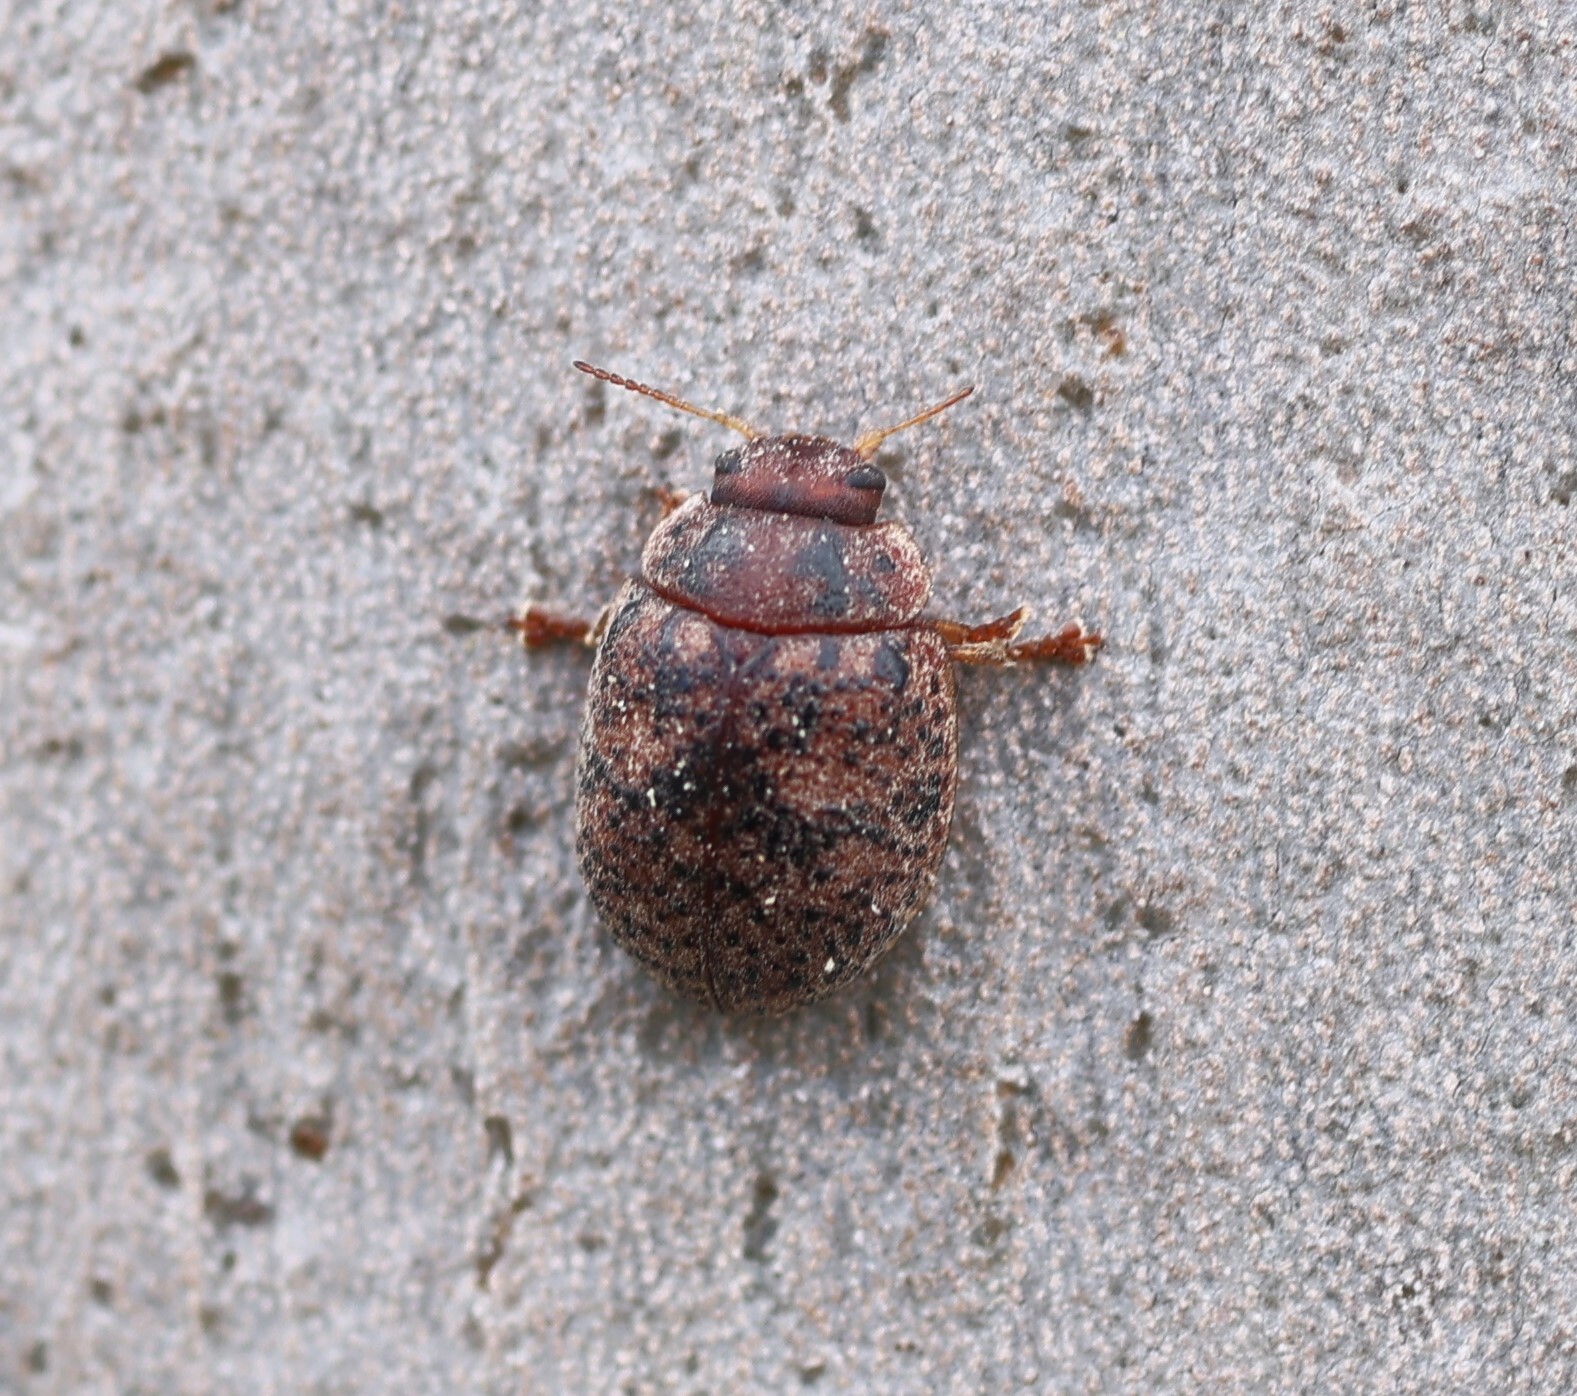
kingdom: Animalia
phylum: Arthropoda
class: Insecta
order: Coleoptera
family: Chrysomelidae
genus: Trachymela
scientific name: Trachymela sloanei
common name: Australian tortoise beetle
